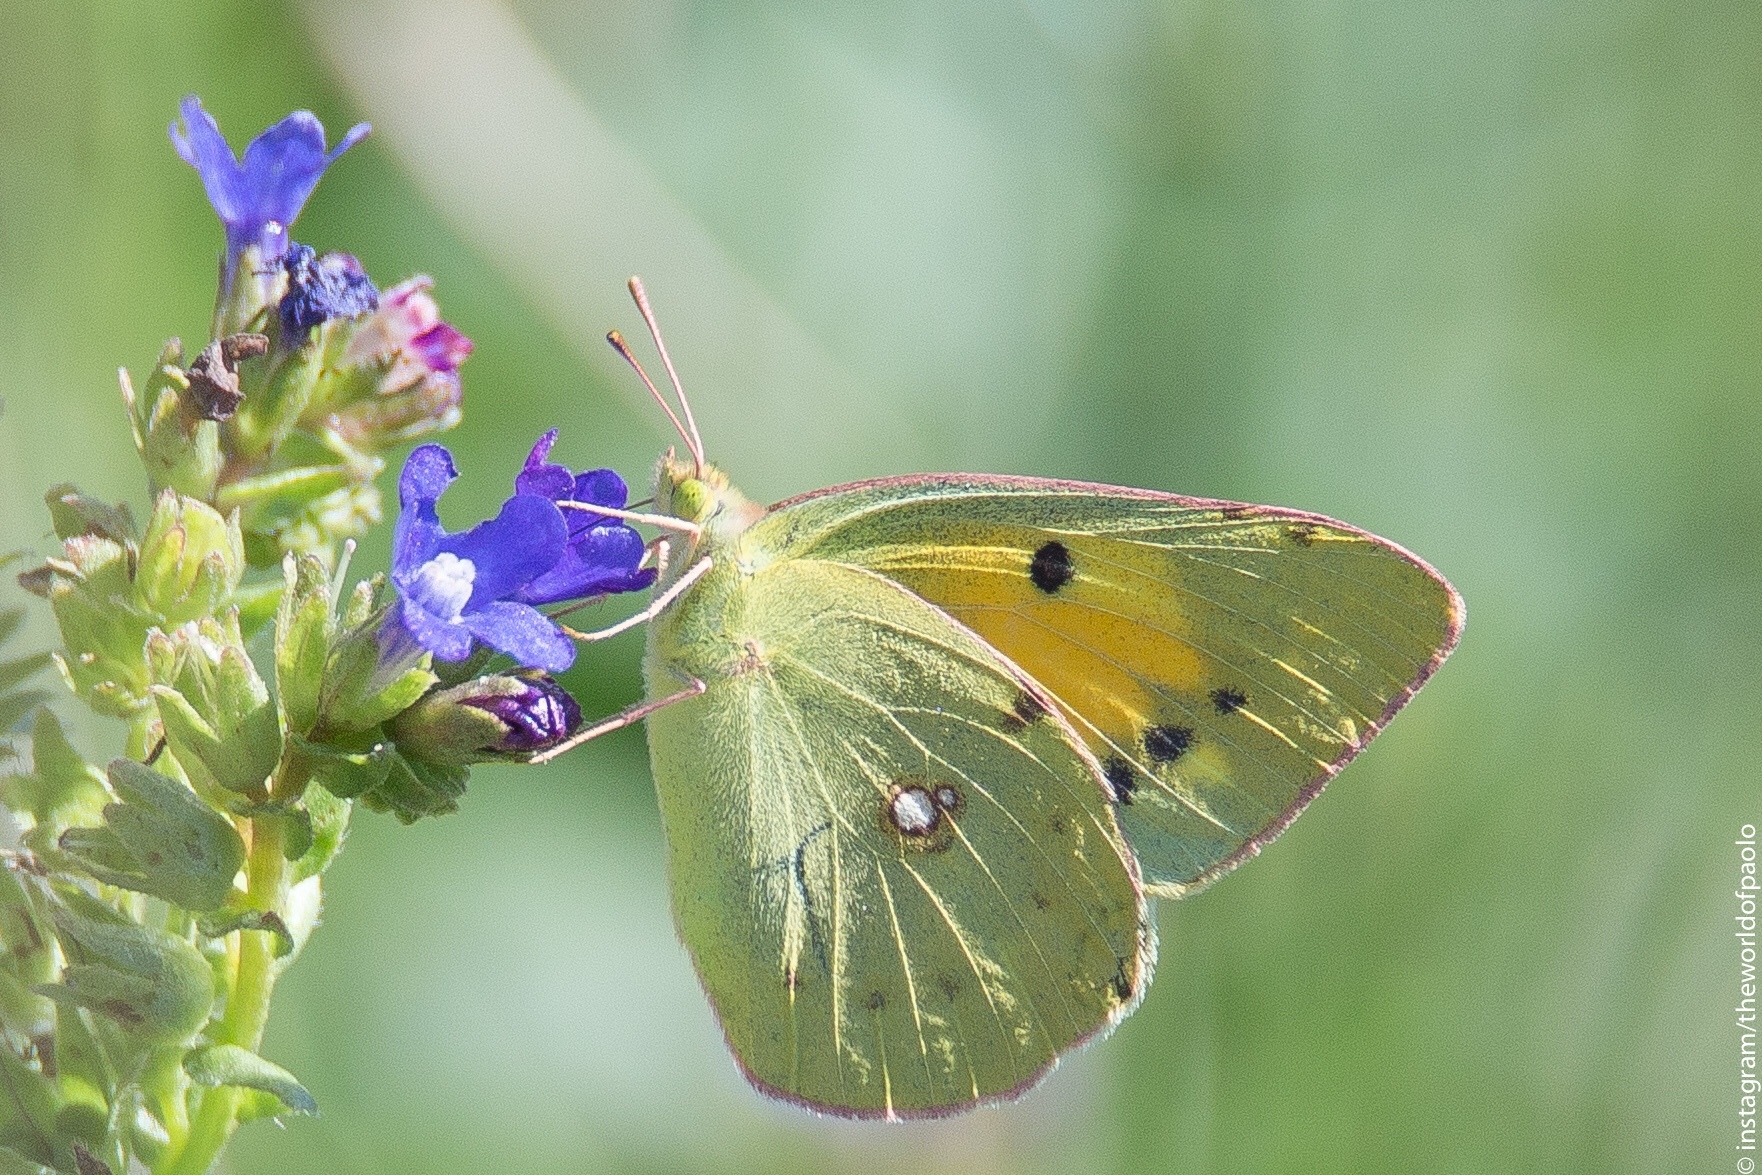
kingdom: Animalia
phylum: Arthropoda
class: Insecta
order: Lepidoptera
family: Pieridae
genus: Colias
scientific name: Colias croceus
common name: Clouded yellow
